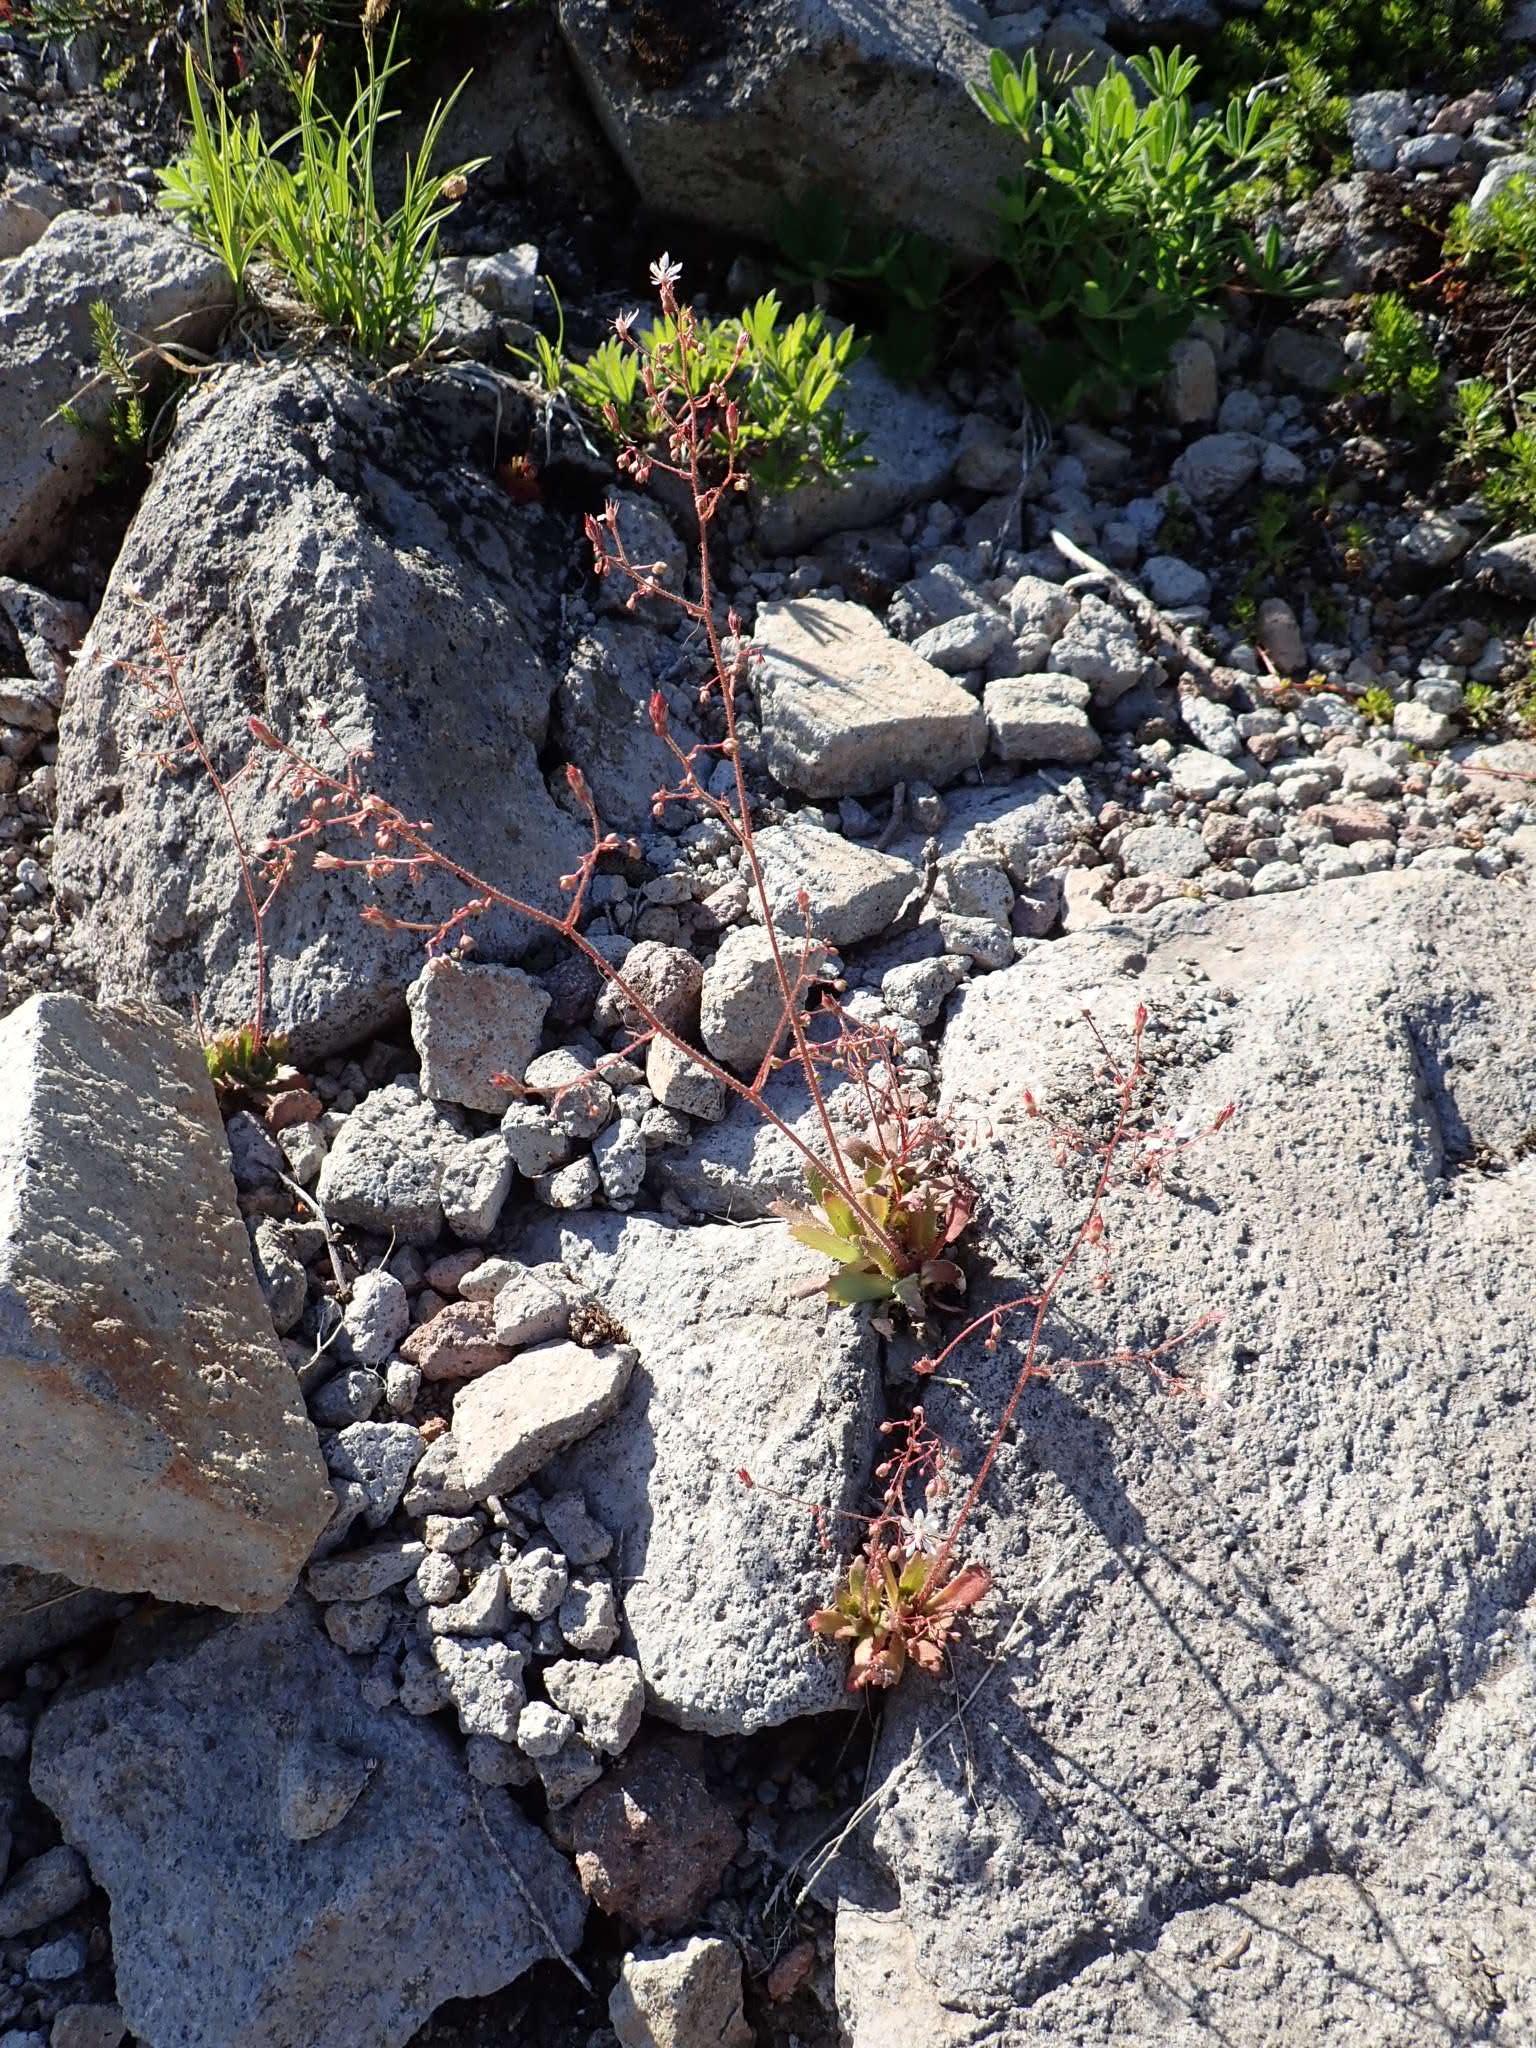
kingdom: Plantae
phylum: Tracheophyta
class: Magnoliopsida
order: Saxifragales
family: Saxifragaceae
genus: Micranthes
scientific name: Micranthes ferruginea
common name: Rusty saxifrage
